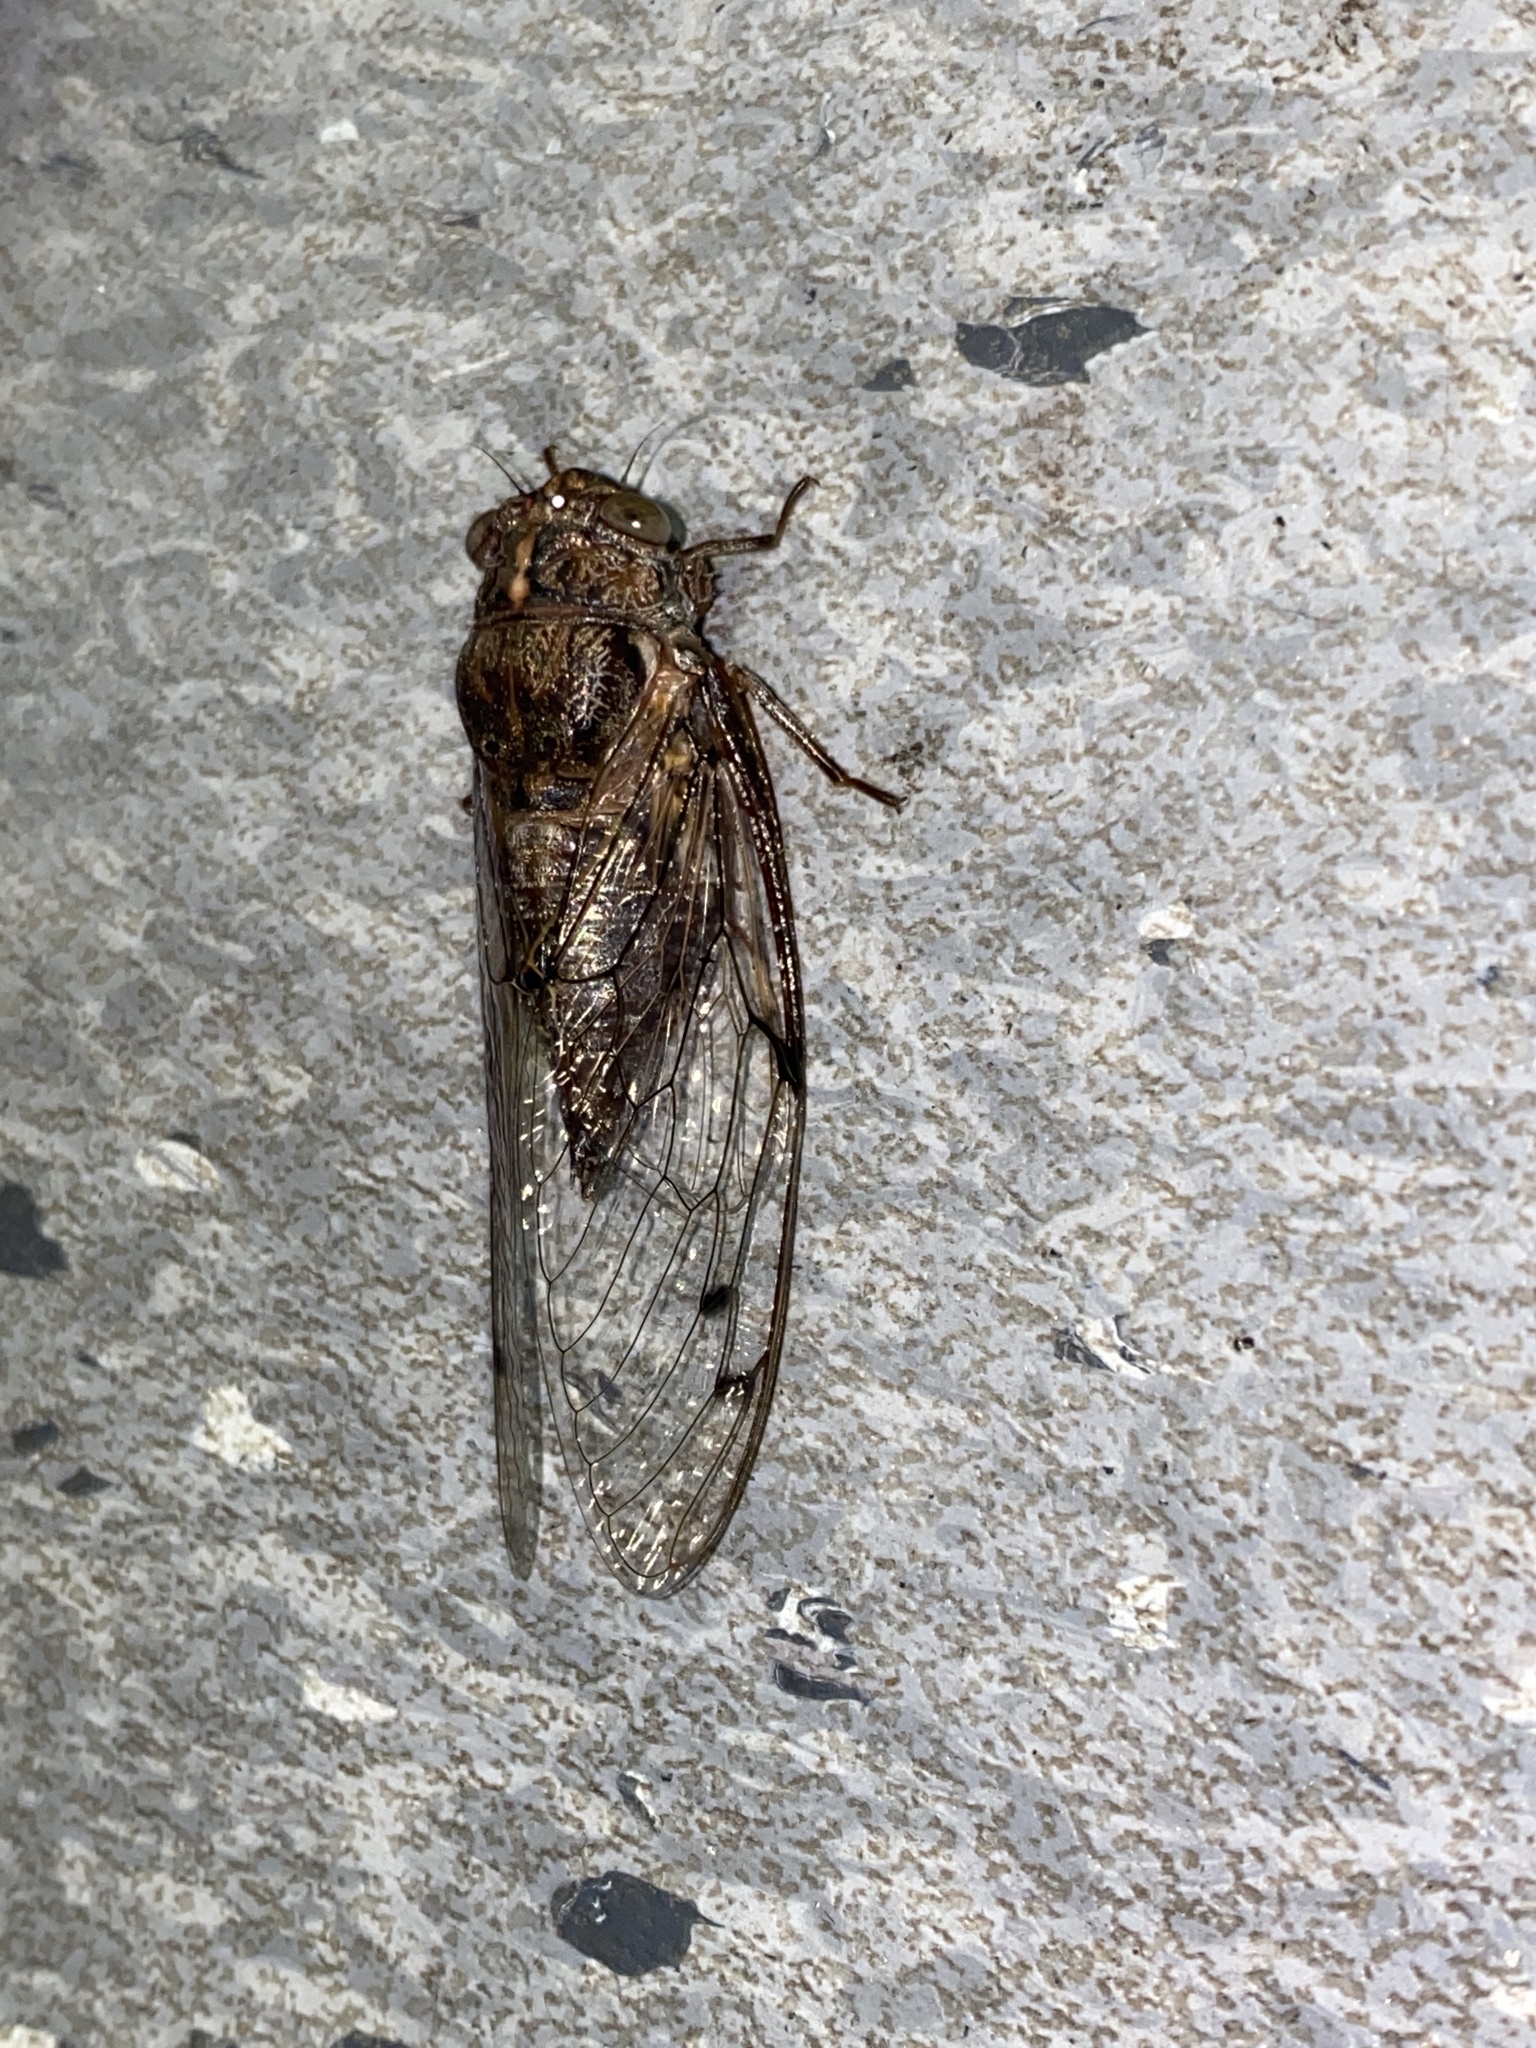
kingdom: Animalia
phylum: Arthropoda
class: Insecta
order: Hemiptera
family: Cicadidae
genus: Aleeta
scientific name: Aleeta curvicosta
